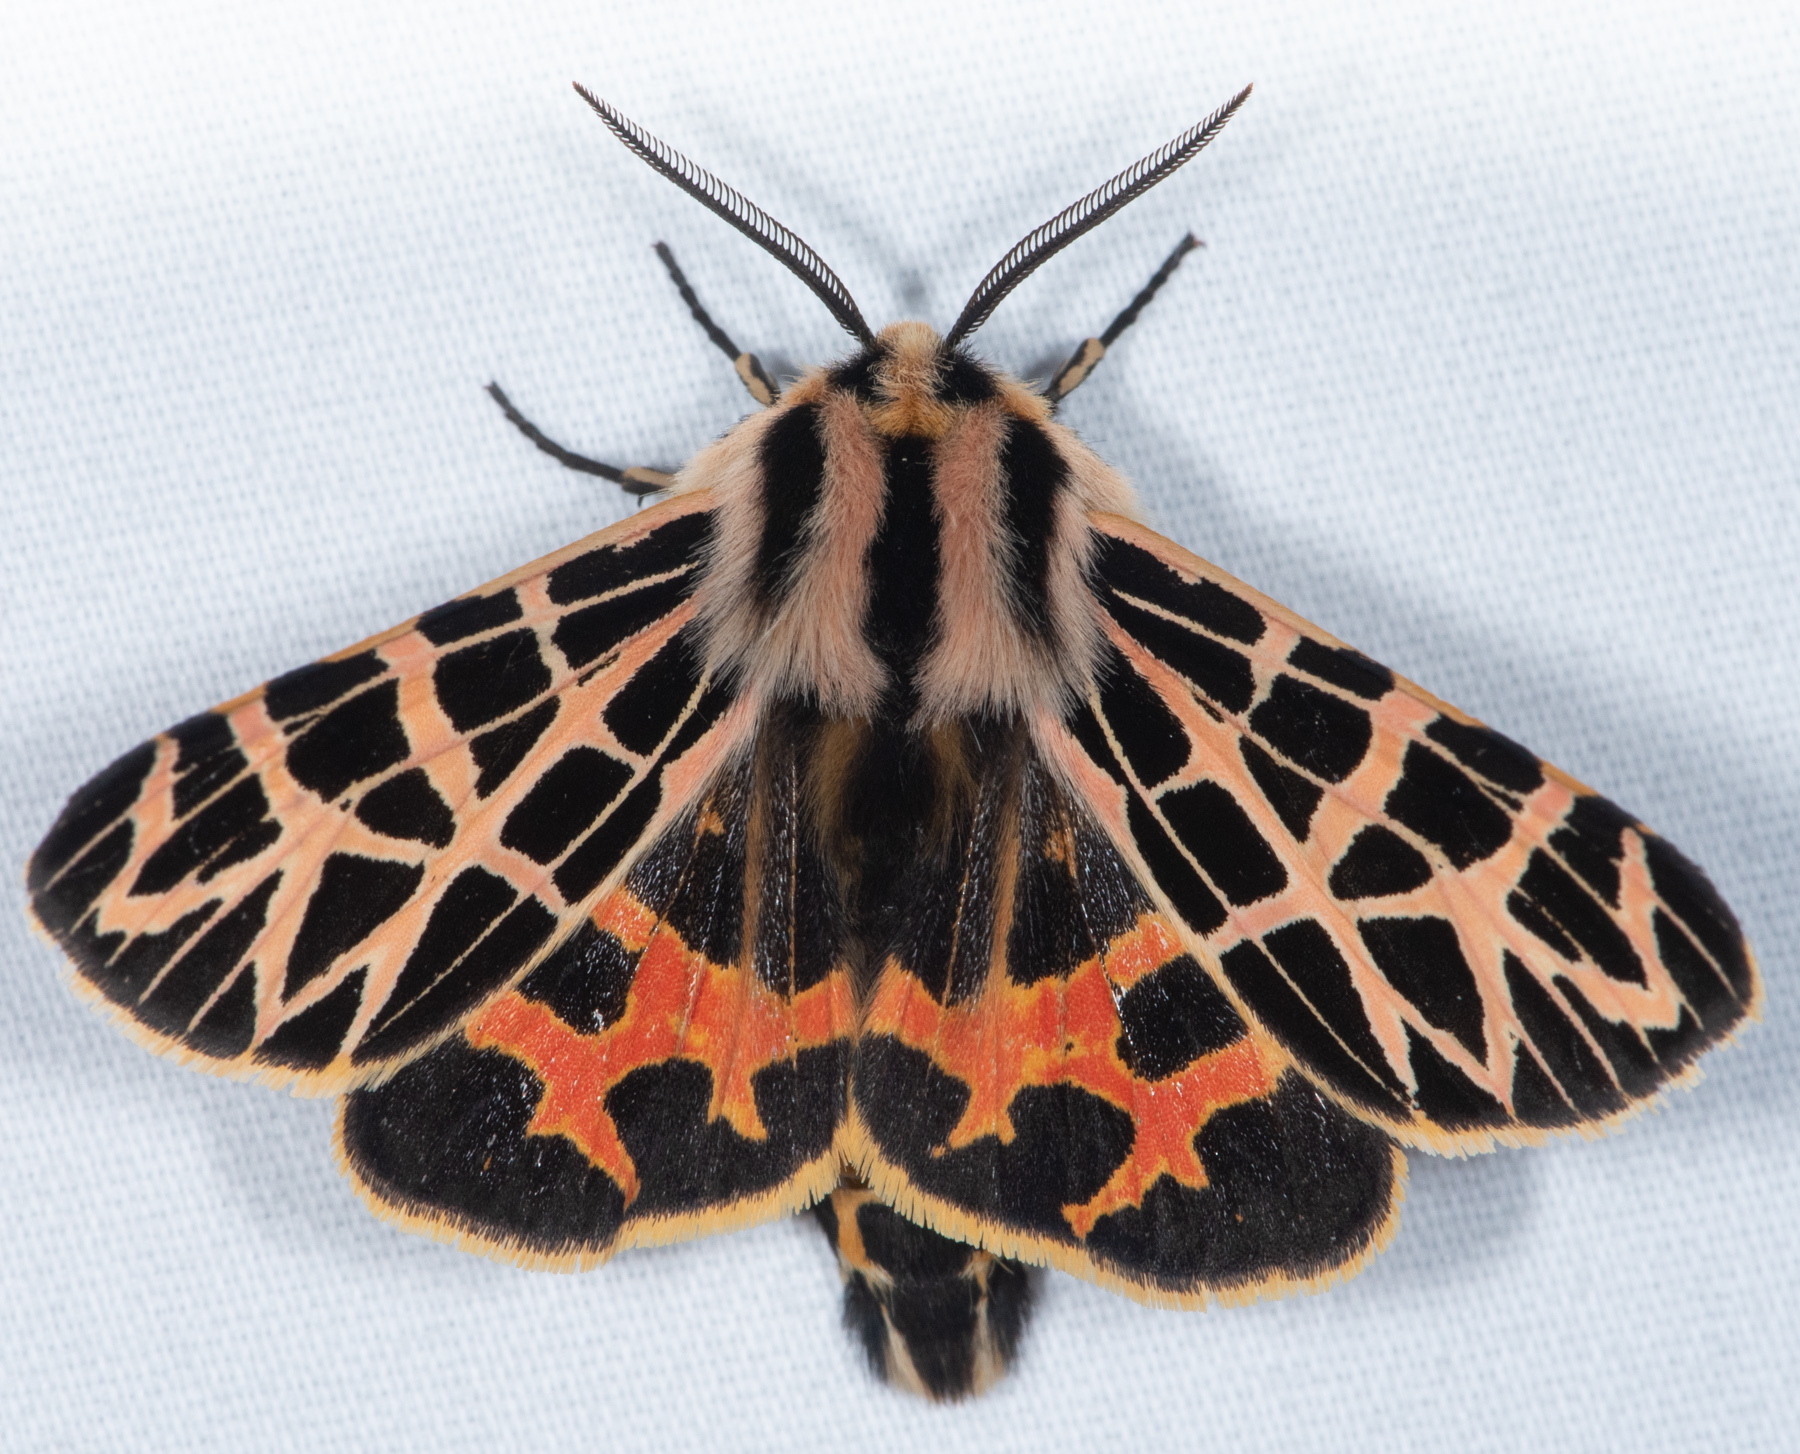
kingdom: Animalia
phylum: Arthropoda
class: Insecta
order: Lepidoptera
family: Erebidae
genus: Apantesis
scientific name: Apantesis
